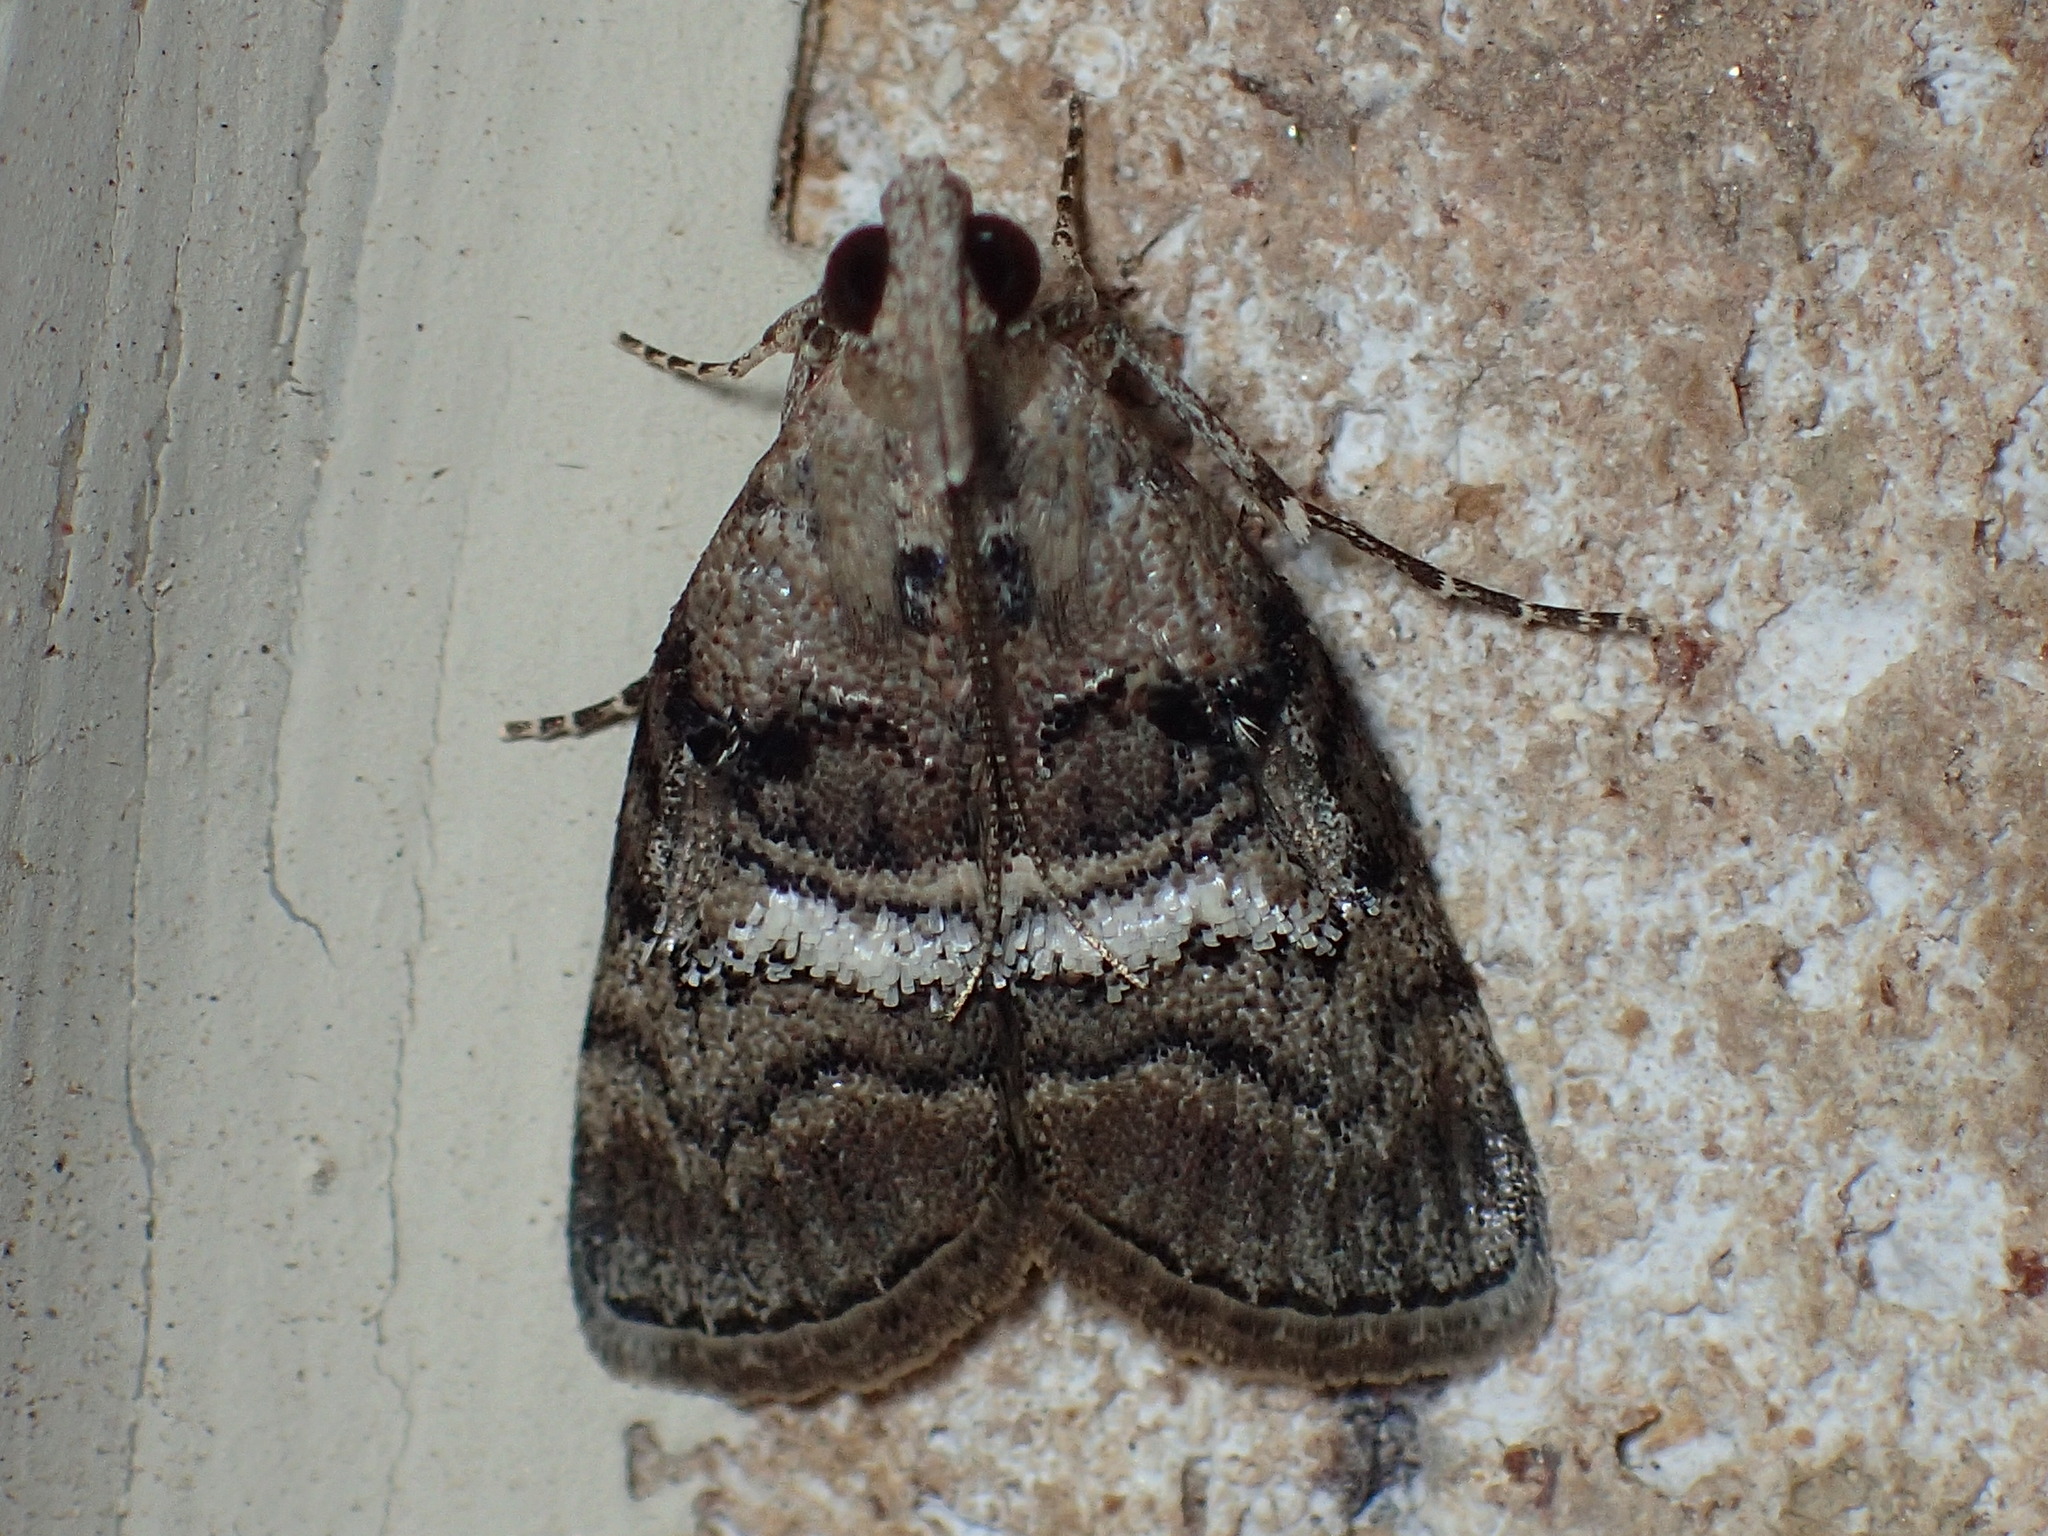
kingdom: Animalia
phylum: Arthropoda
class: Insecta
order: Lepidoptera
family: Pyralidae
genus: Pococera
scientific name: Pococera asperatella
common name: Maple webworm moth
